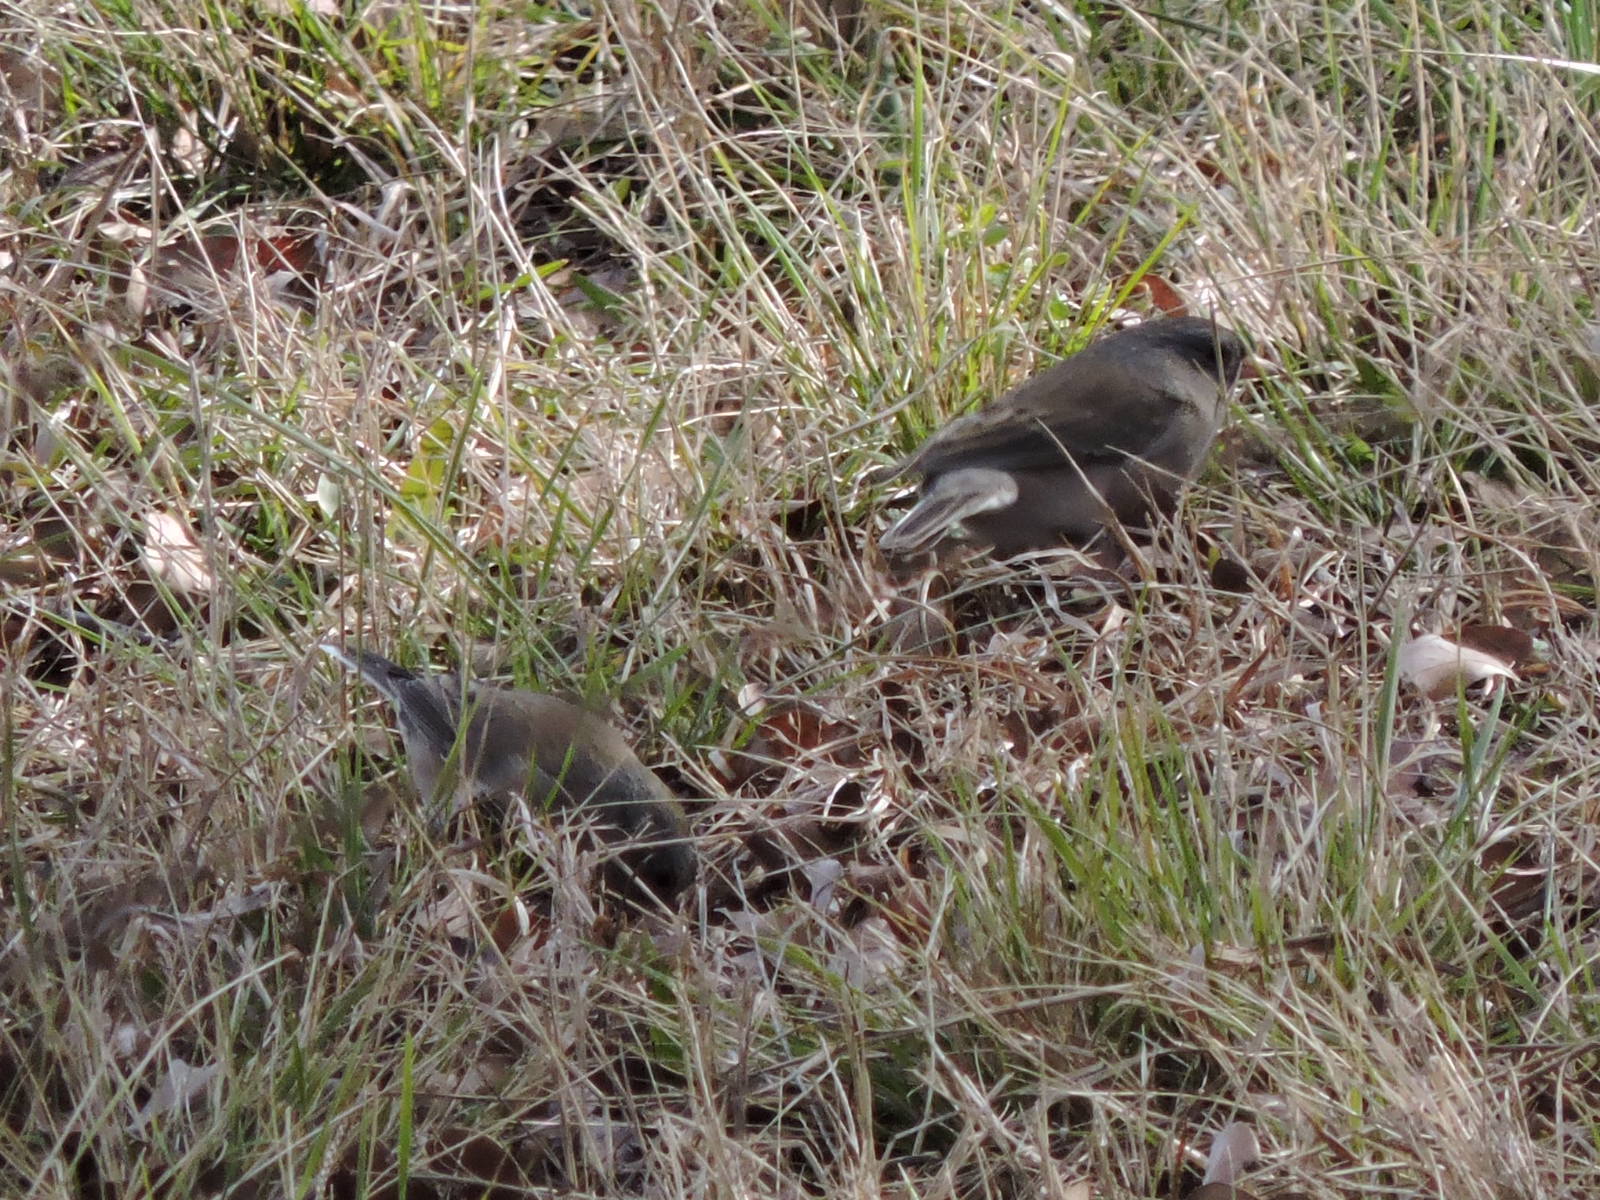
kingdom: Animalia
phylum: Chordata
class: Aves
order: Passeriformes
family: Passerellidae
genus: Junco
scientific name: Junco hyemalis
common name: Dark-eyed junco
